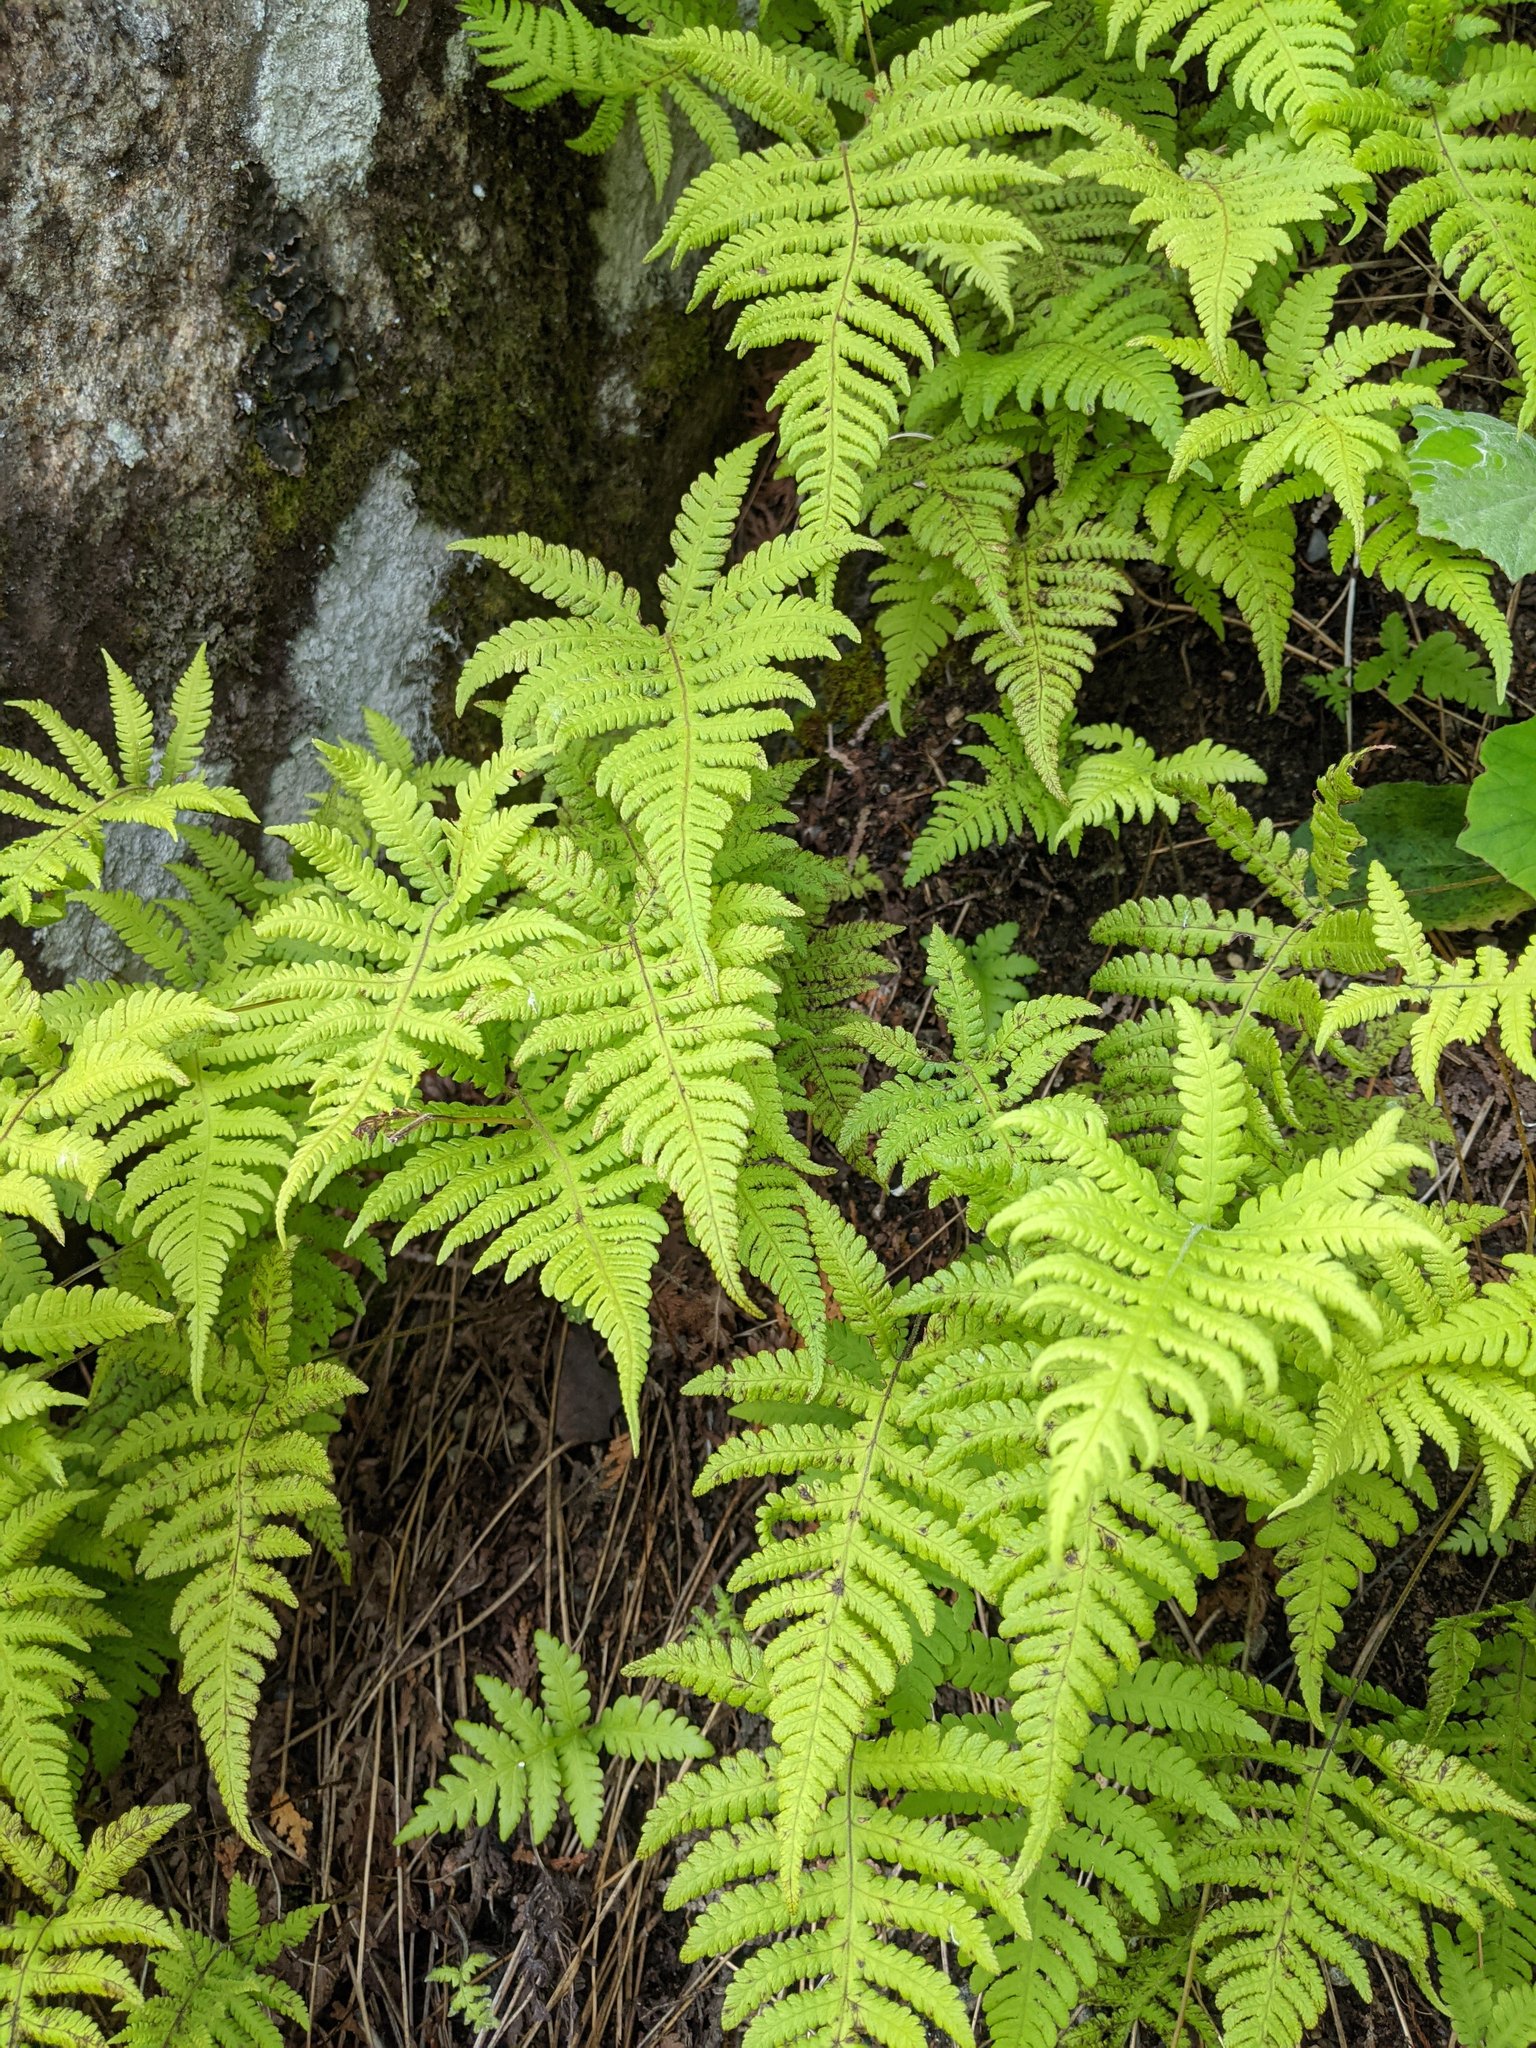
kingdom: Plantae
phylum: Tracheophyta
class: Polypodiopsida
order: Polypodiales
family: Thelypteridaceae
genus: Phegopteris
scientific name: Phegopteris connectilis
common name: Beech fern
